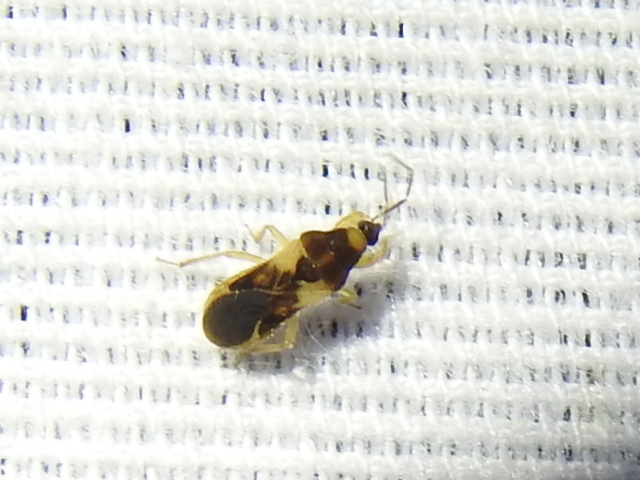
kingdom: Animalia
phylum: Arthropoda
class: Insecta
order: Hemiptera
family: Nabidae
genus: Phorticus
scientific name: Phorticus collaris
